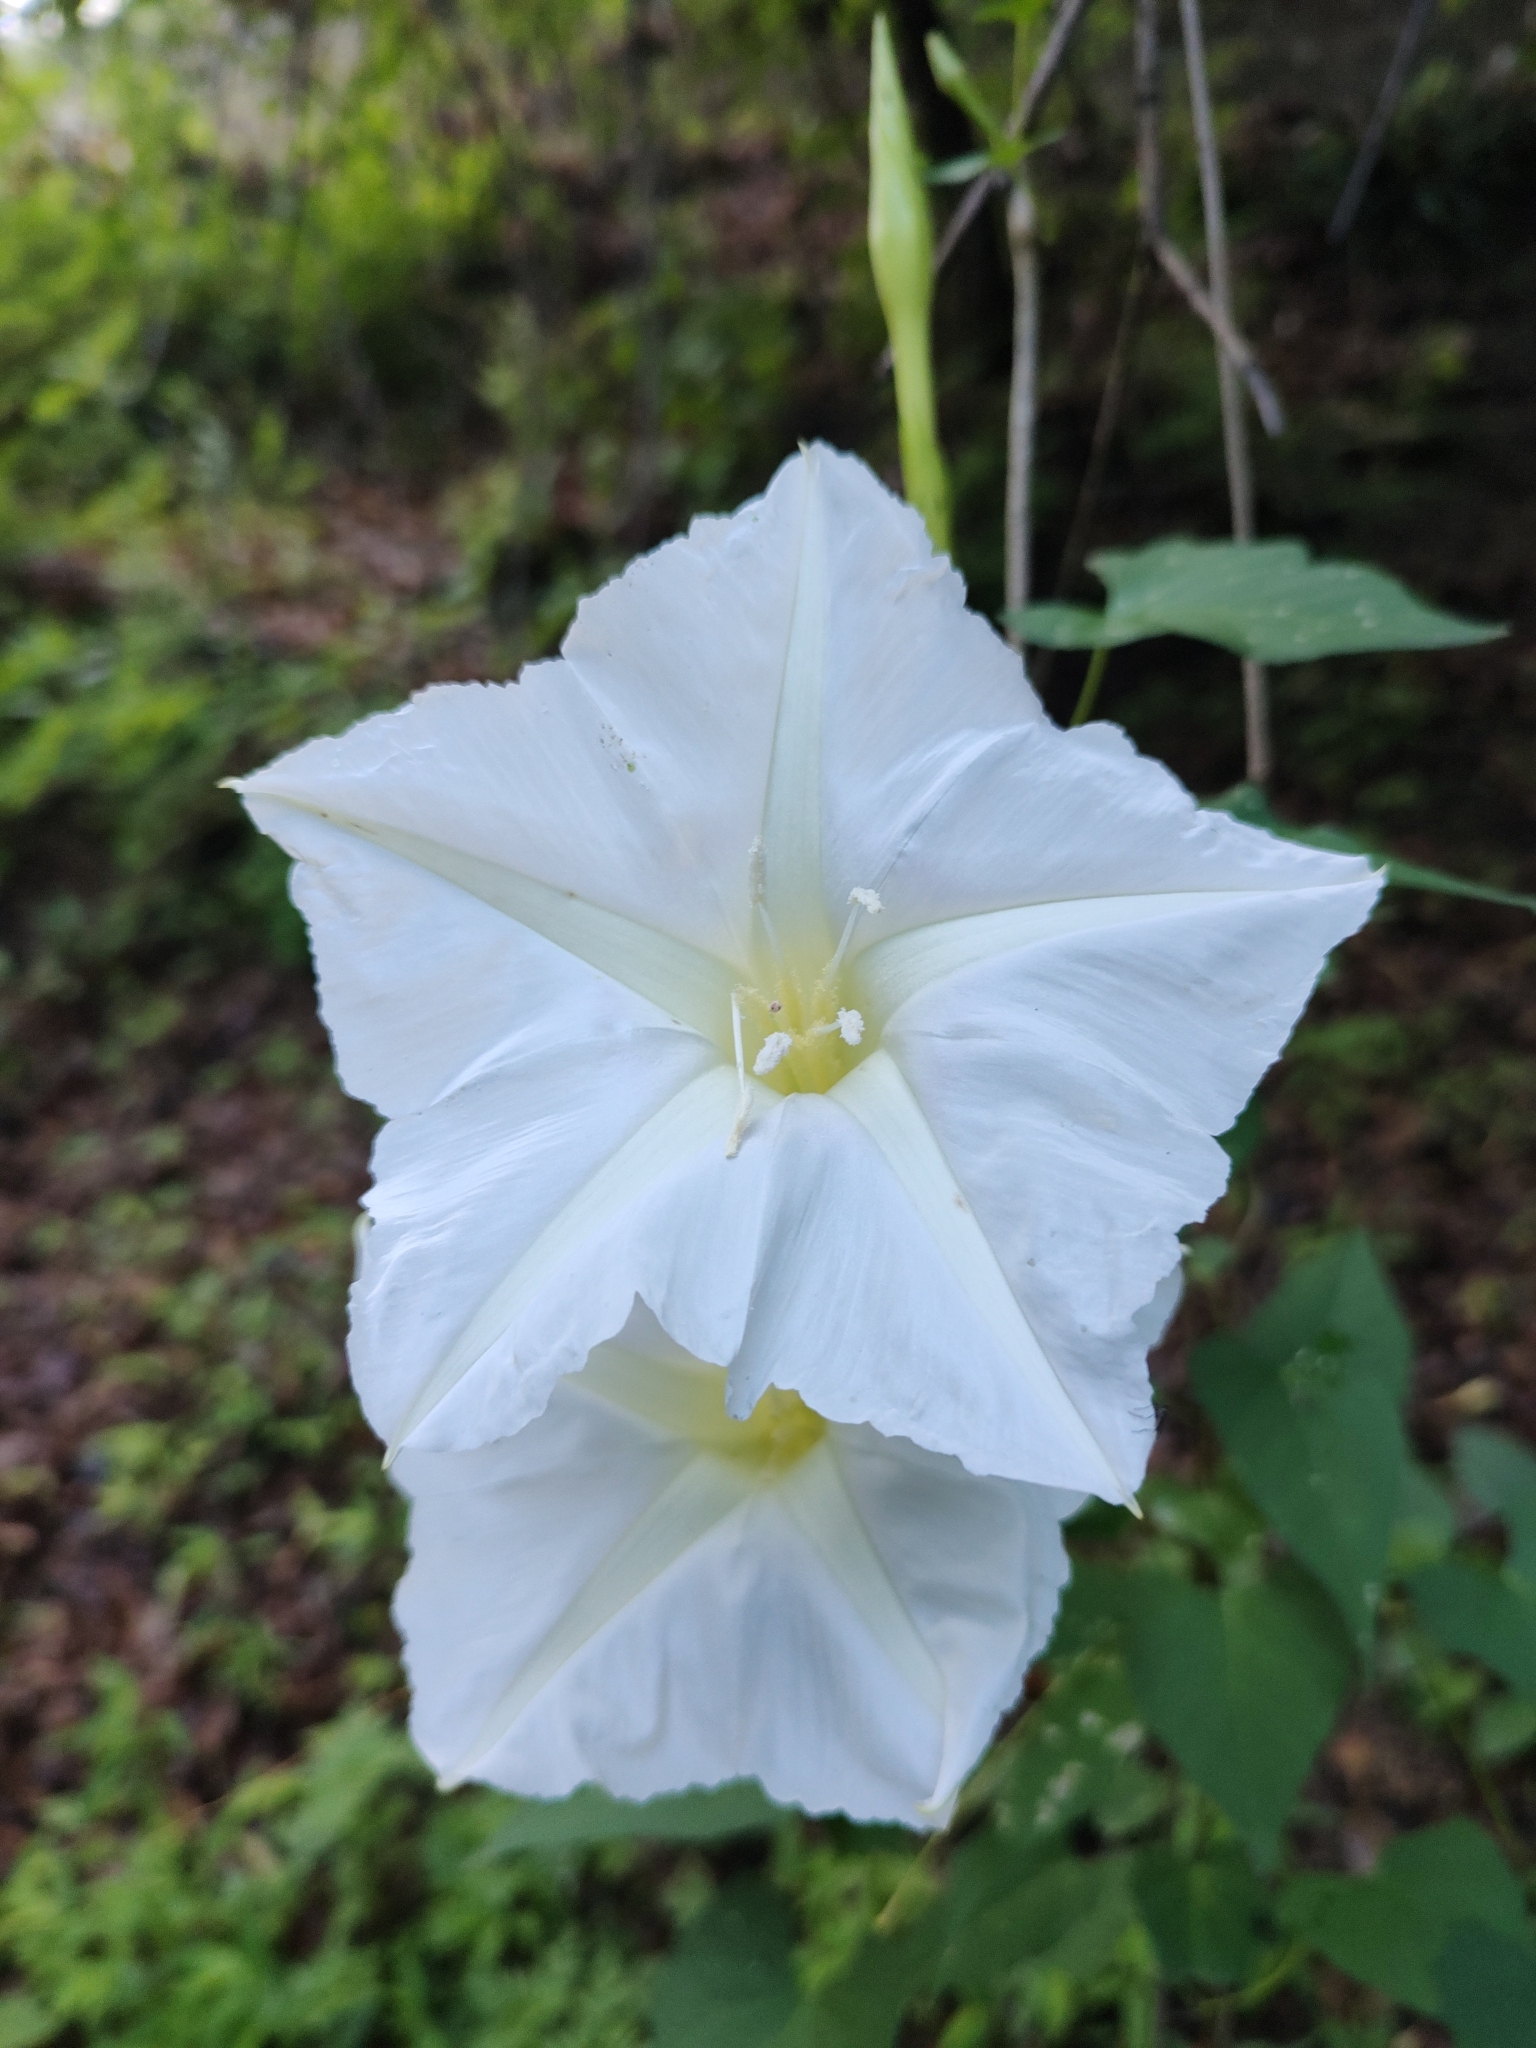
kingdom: Plantae
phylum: Tracheophyta
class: Magnoliopsida
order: Solanales
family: Convolvulaceae
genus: Ipomoea
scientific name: Ipomoea tastensis
